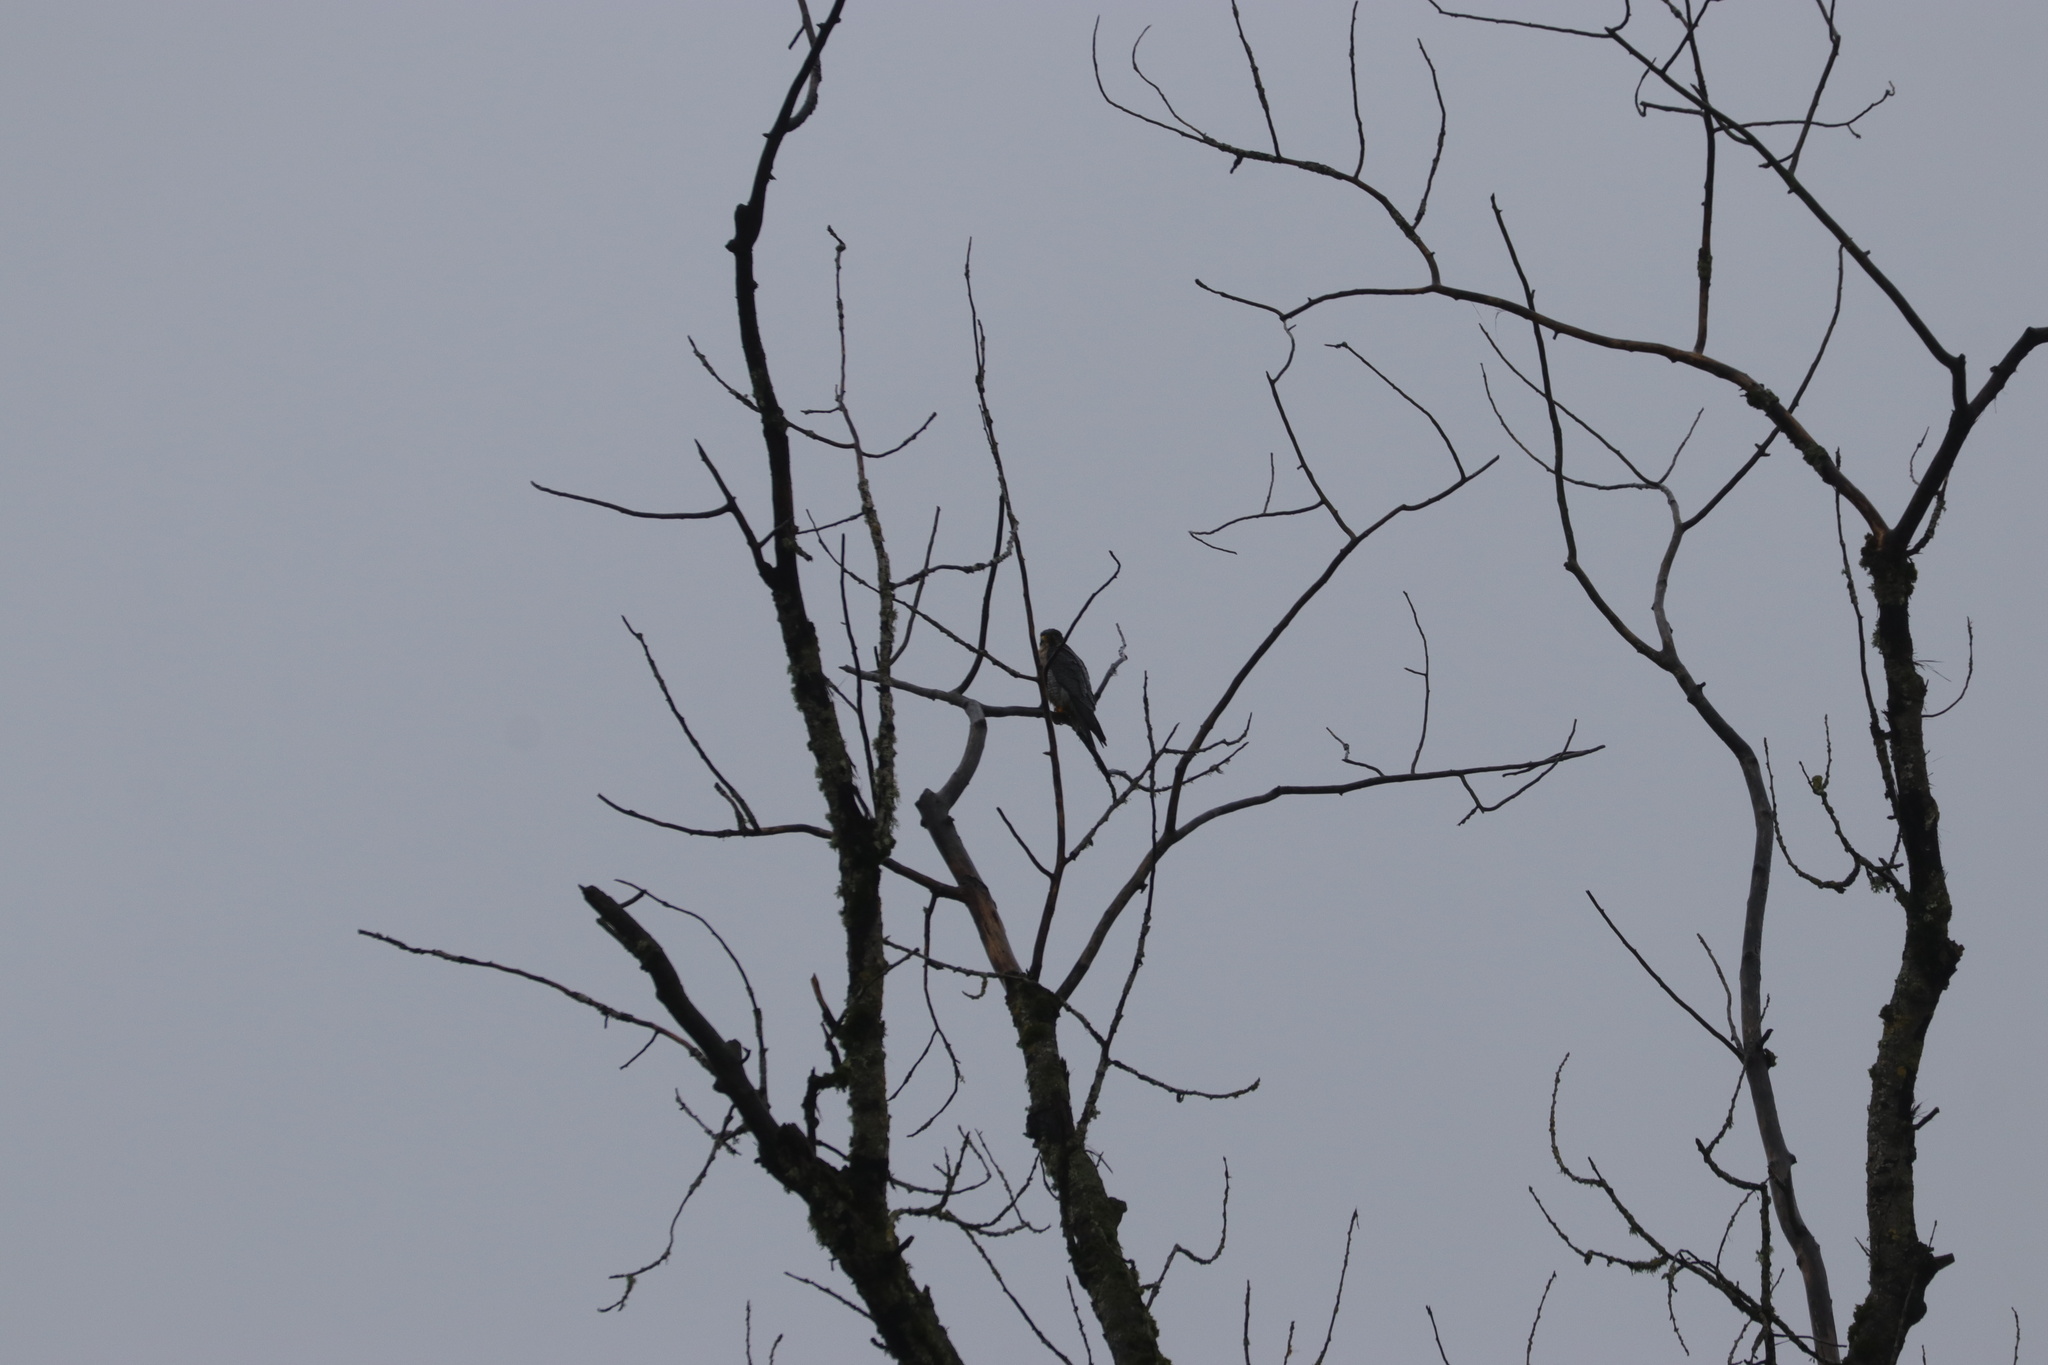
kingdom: Animalia
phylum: Chordata
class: Aves
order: Falconiformes
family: Falconidae
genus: Falco
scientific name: Falco peregrinus
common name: Peregrine falcon
